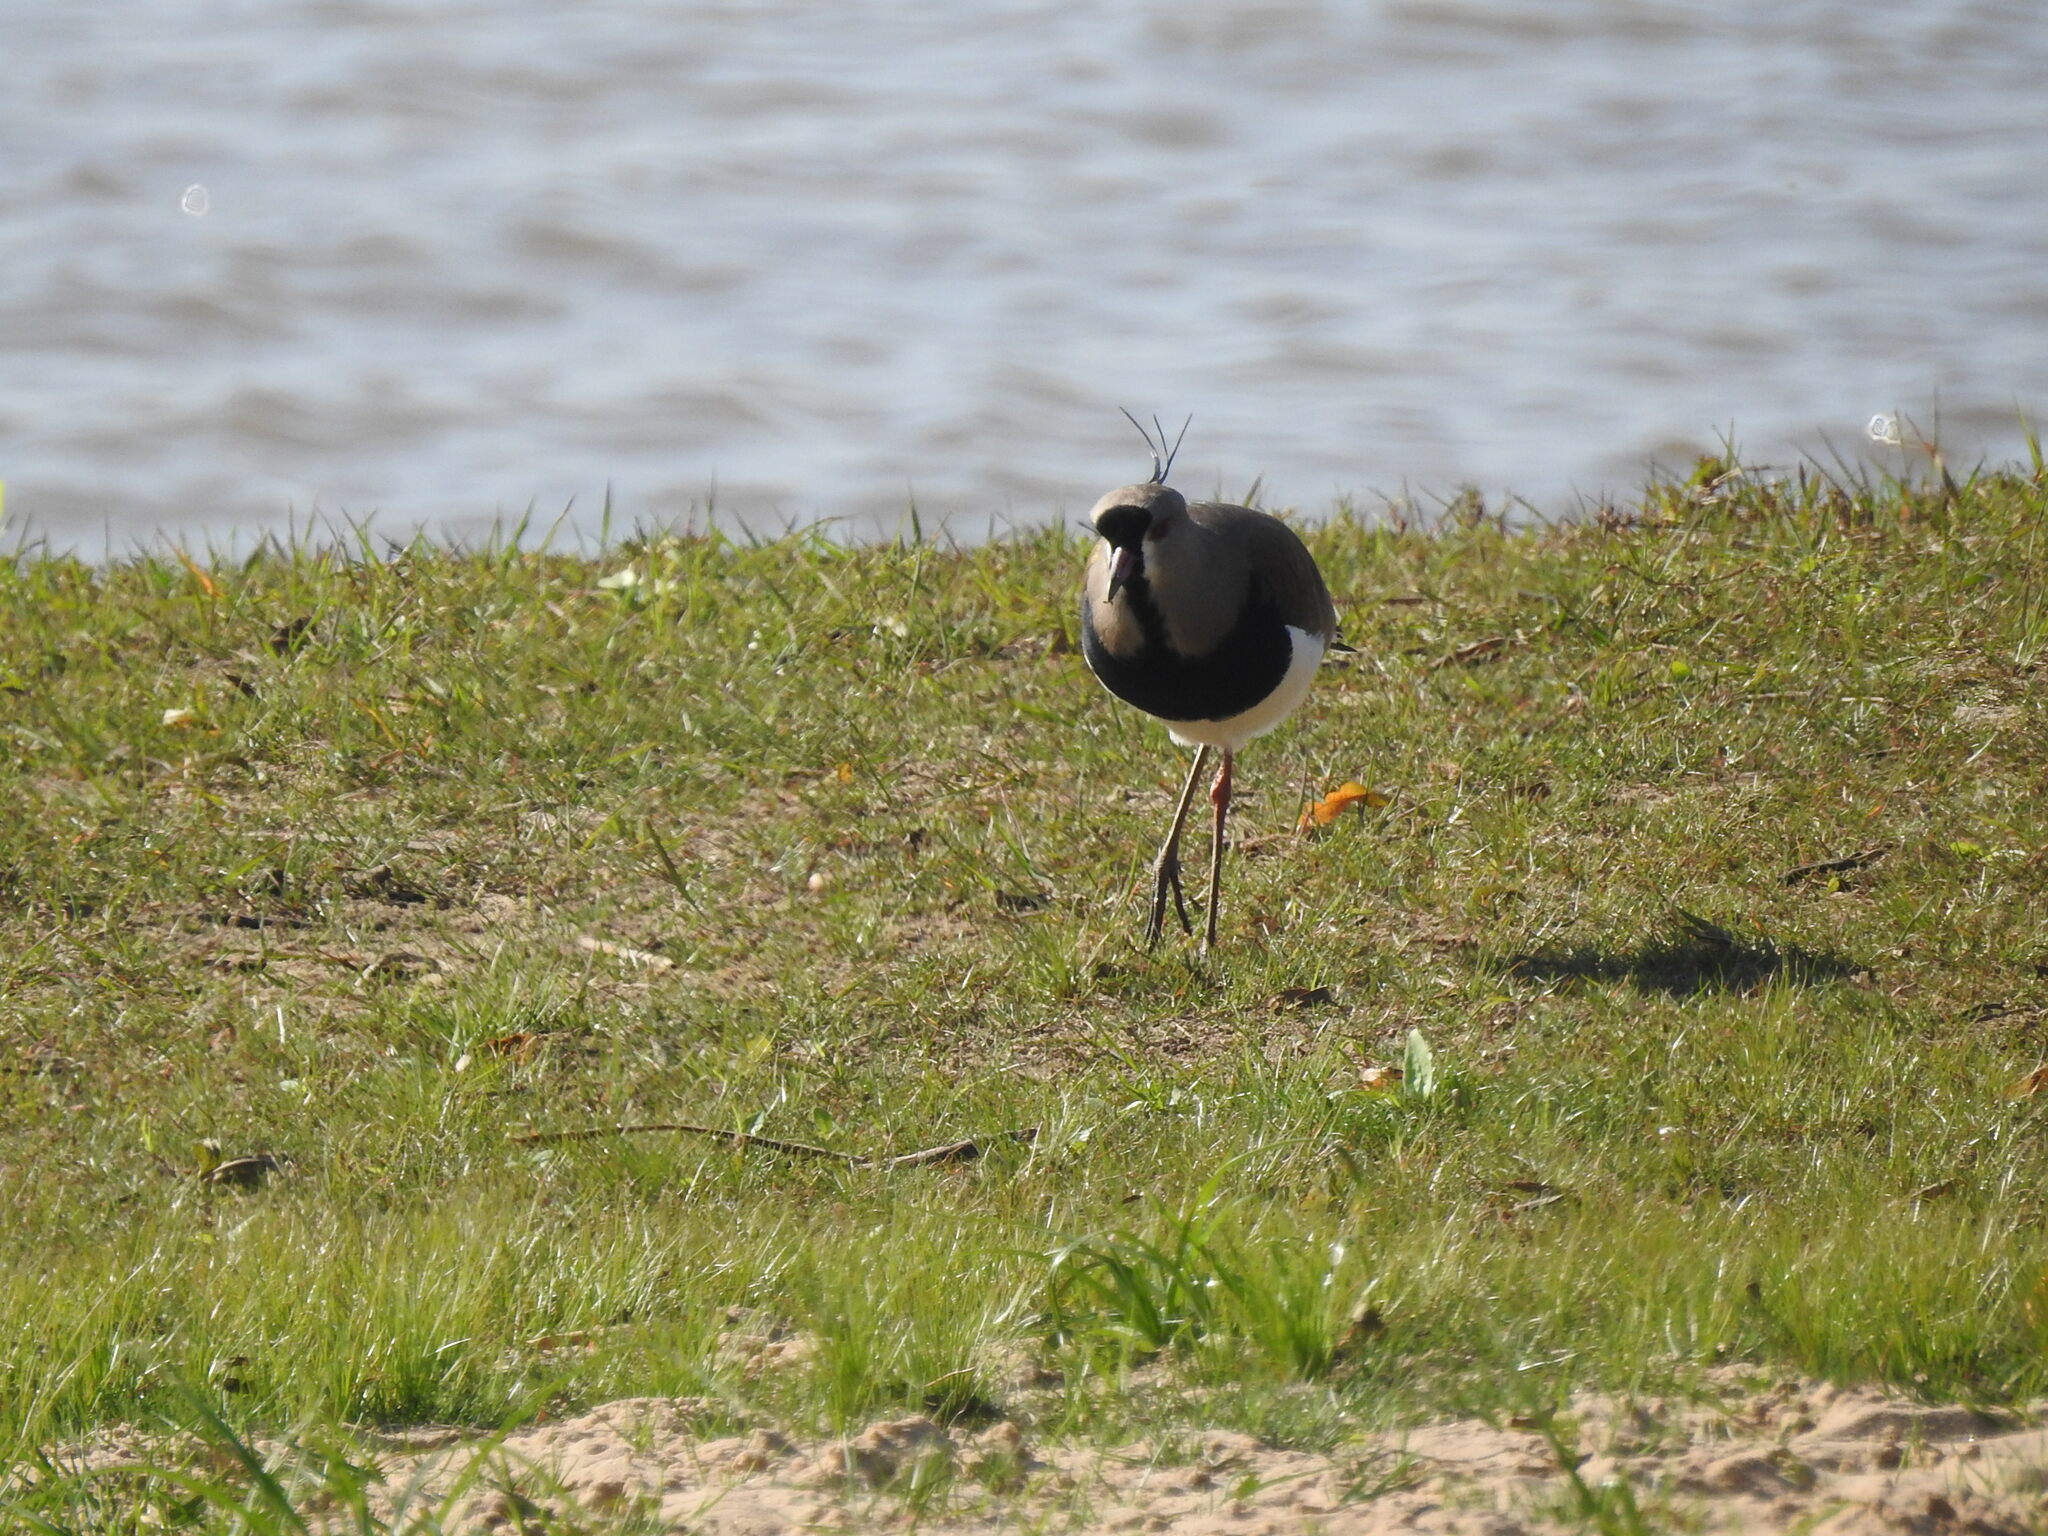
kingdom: Animalia
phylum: Chordata
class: Aves
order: Charadriiformes
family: Charadriidae
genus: Vanellus
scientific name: Vanellus chilensis
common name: Southern lapwing
